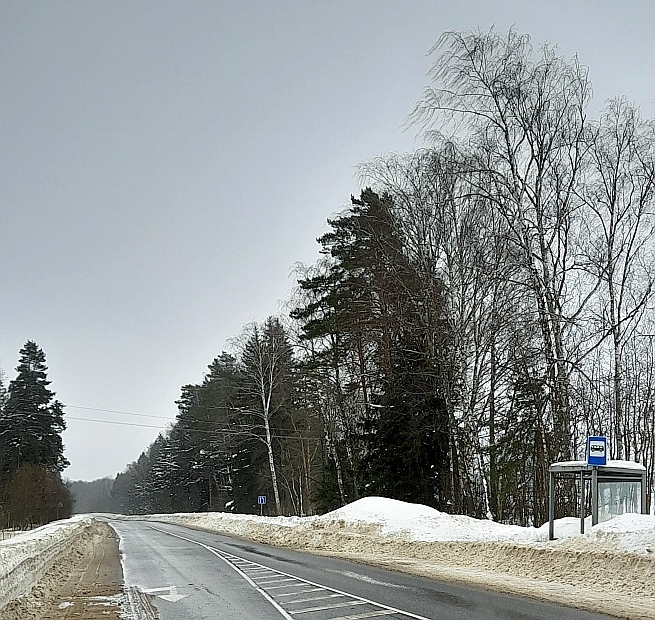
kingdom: Plantae
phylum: Tracheophyta
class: Magnoliopsida
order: Fagales
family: Betulaceae
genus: Betula
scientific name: Betula pendula
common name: Silver birch
